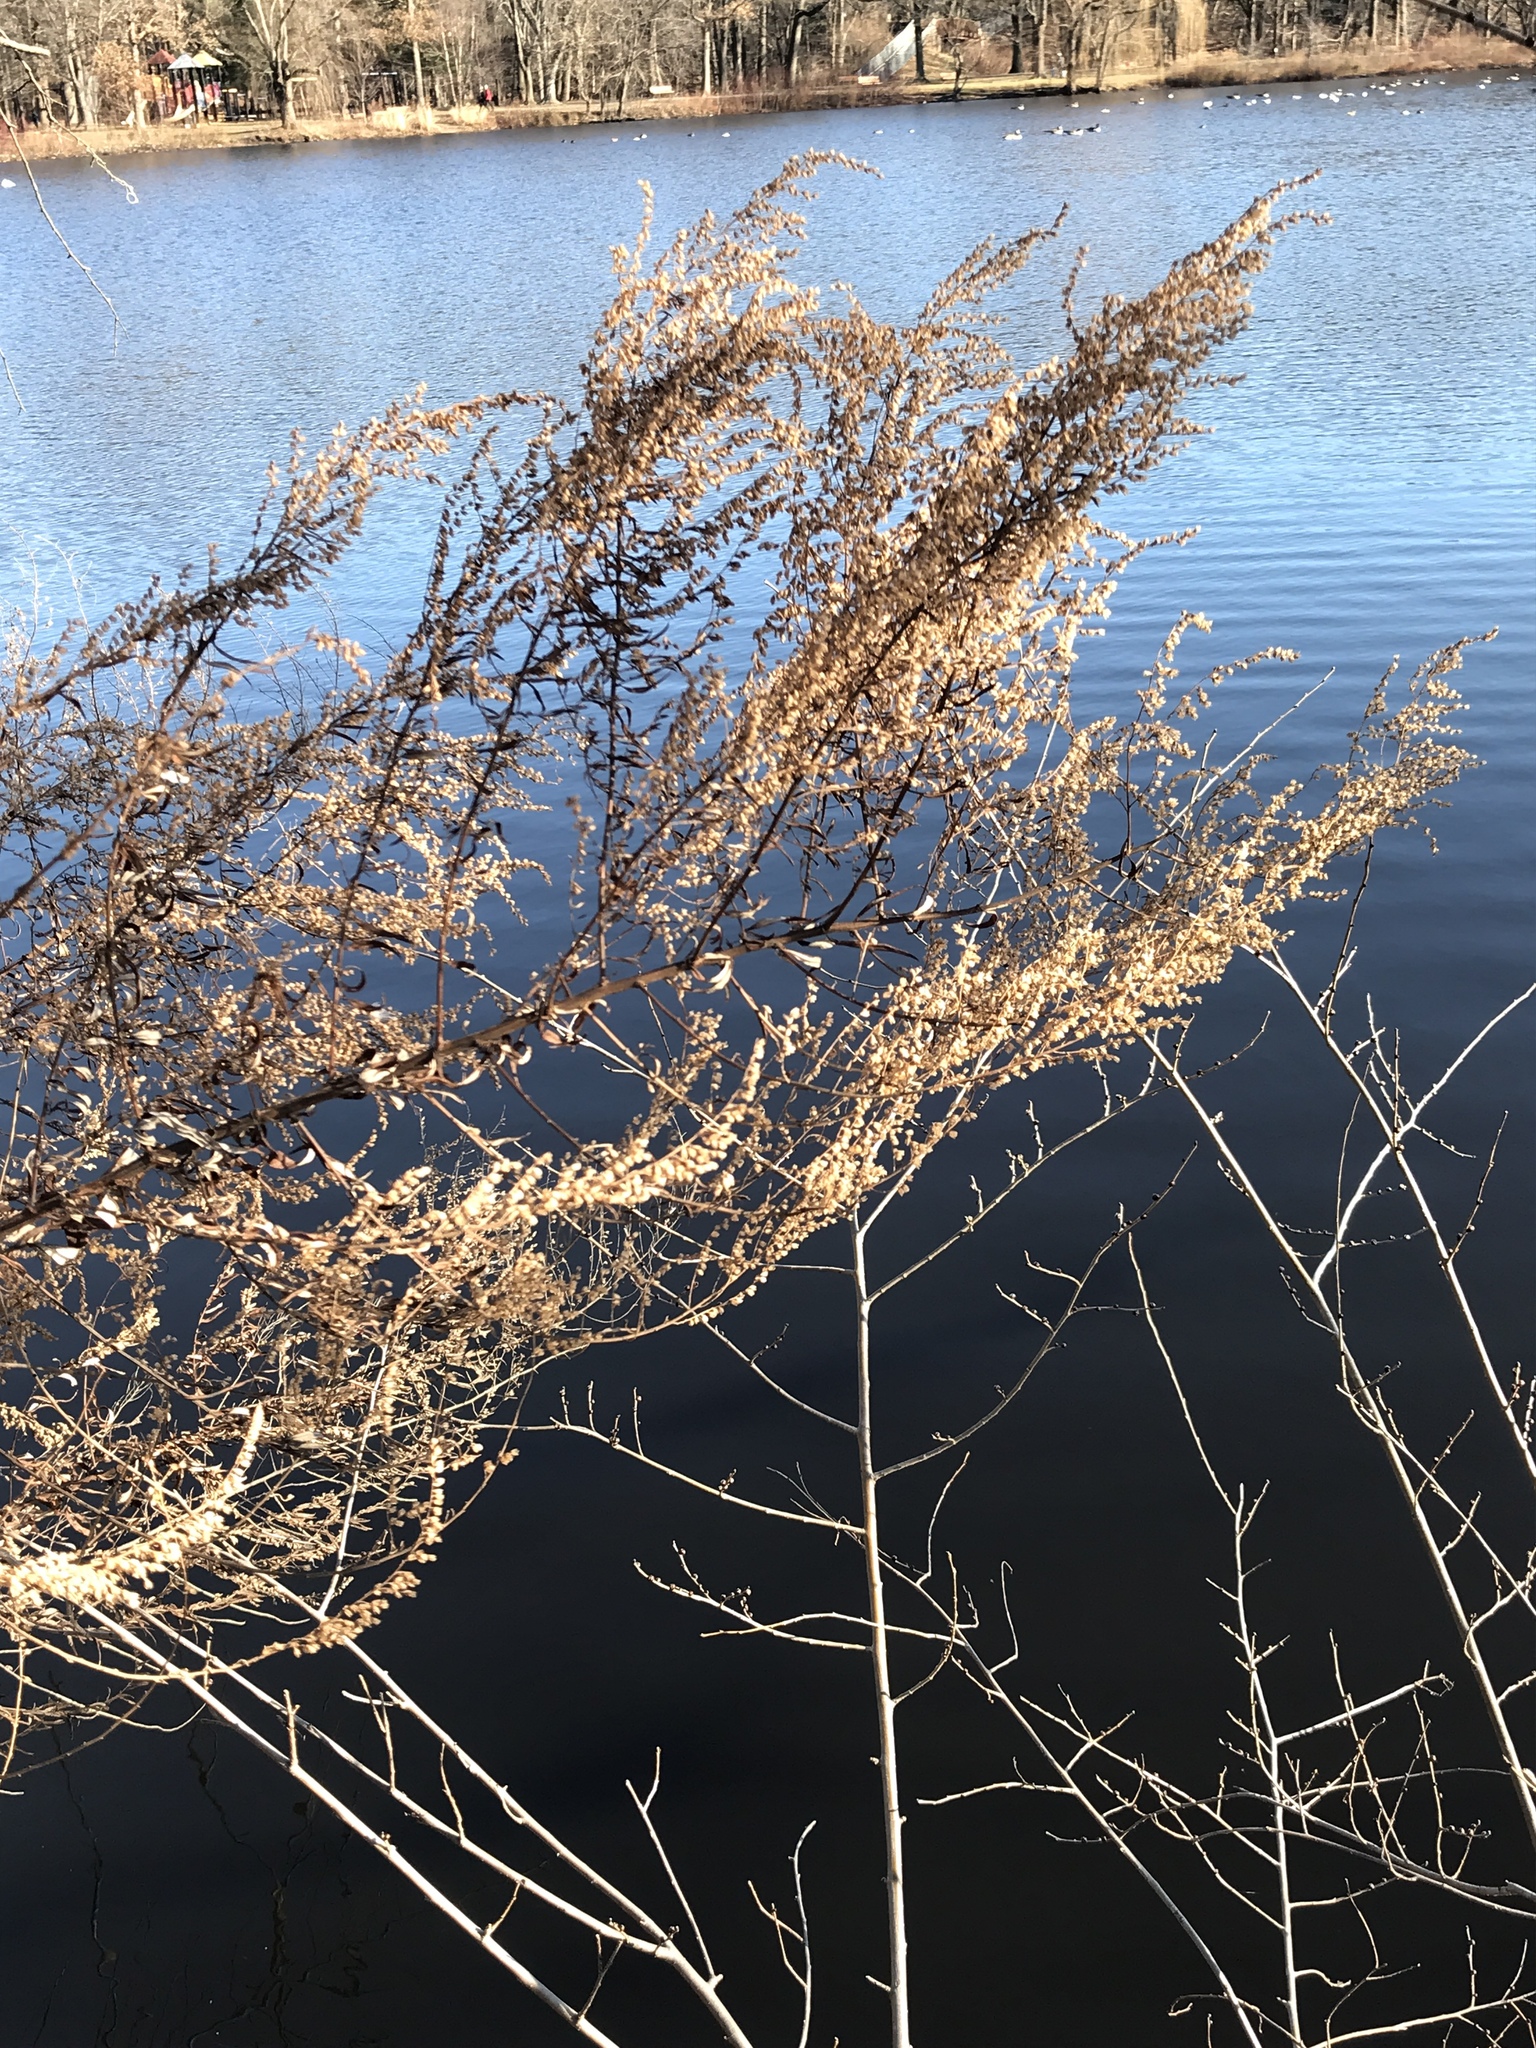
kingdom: Plantae
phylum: Tracheophyta
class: Magnoliopsida
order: Asterales
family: Asteraceae
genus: Artemisia
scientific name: Artemisia vulgaris
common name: Mugwort
